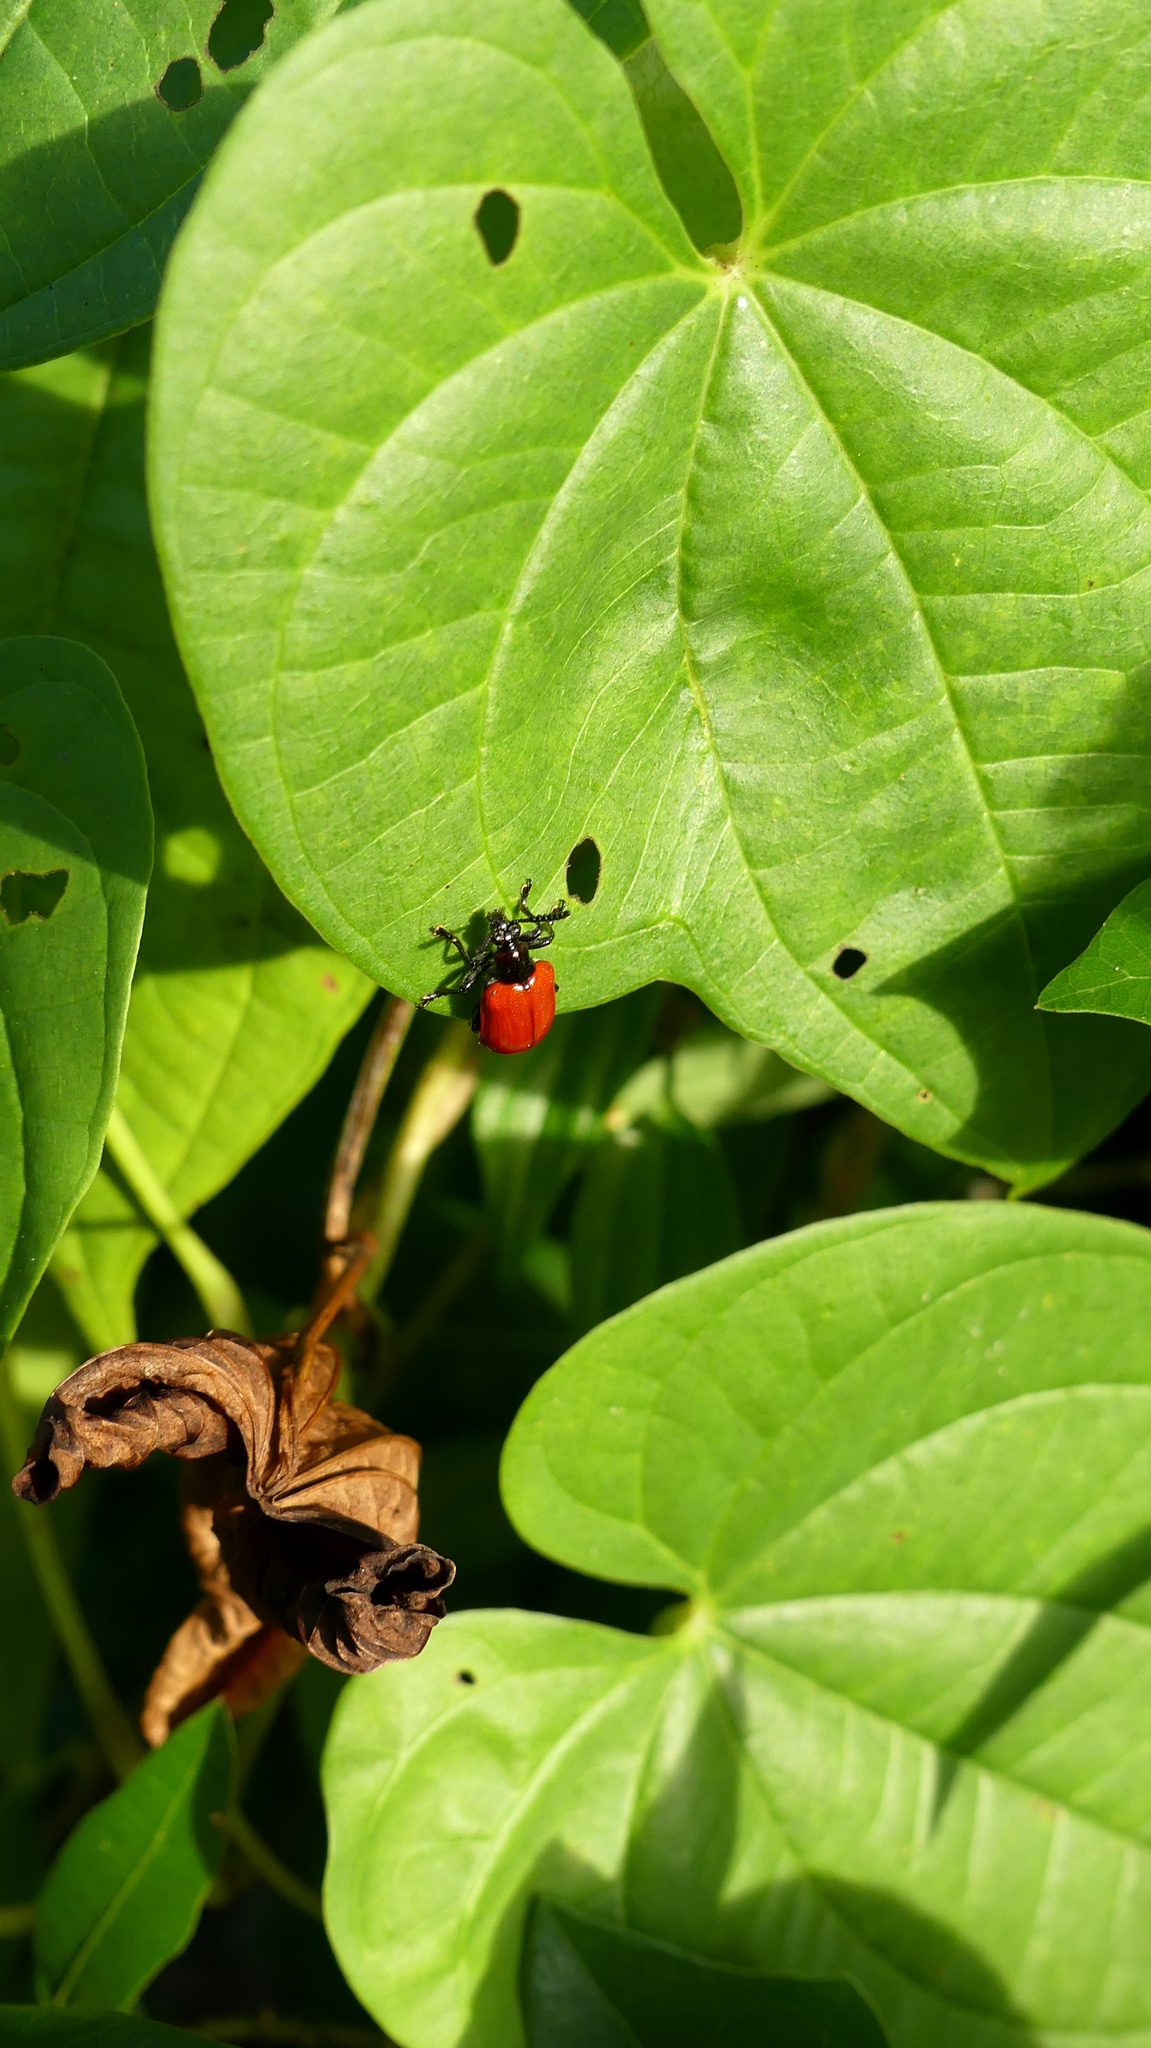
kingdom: Animalia
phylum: Arthropoda
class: Insecta
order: Coleoptera
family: Chrysomelidae
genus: Lilioceris
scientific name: Lilioceris cheni
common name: Leaf beetle
